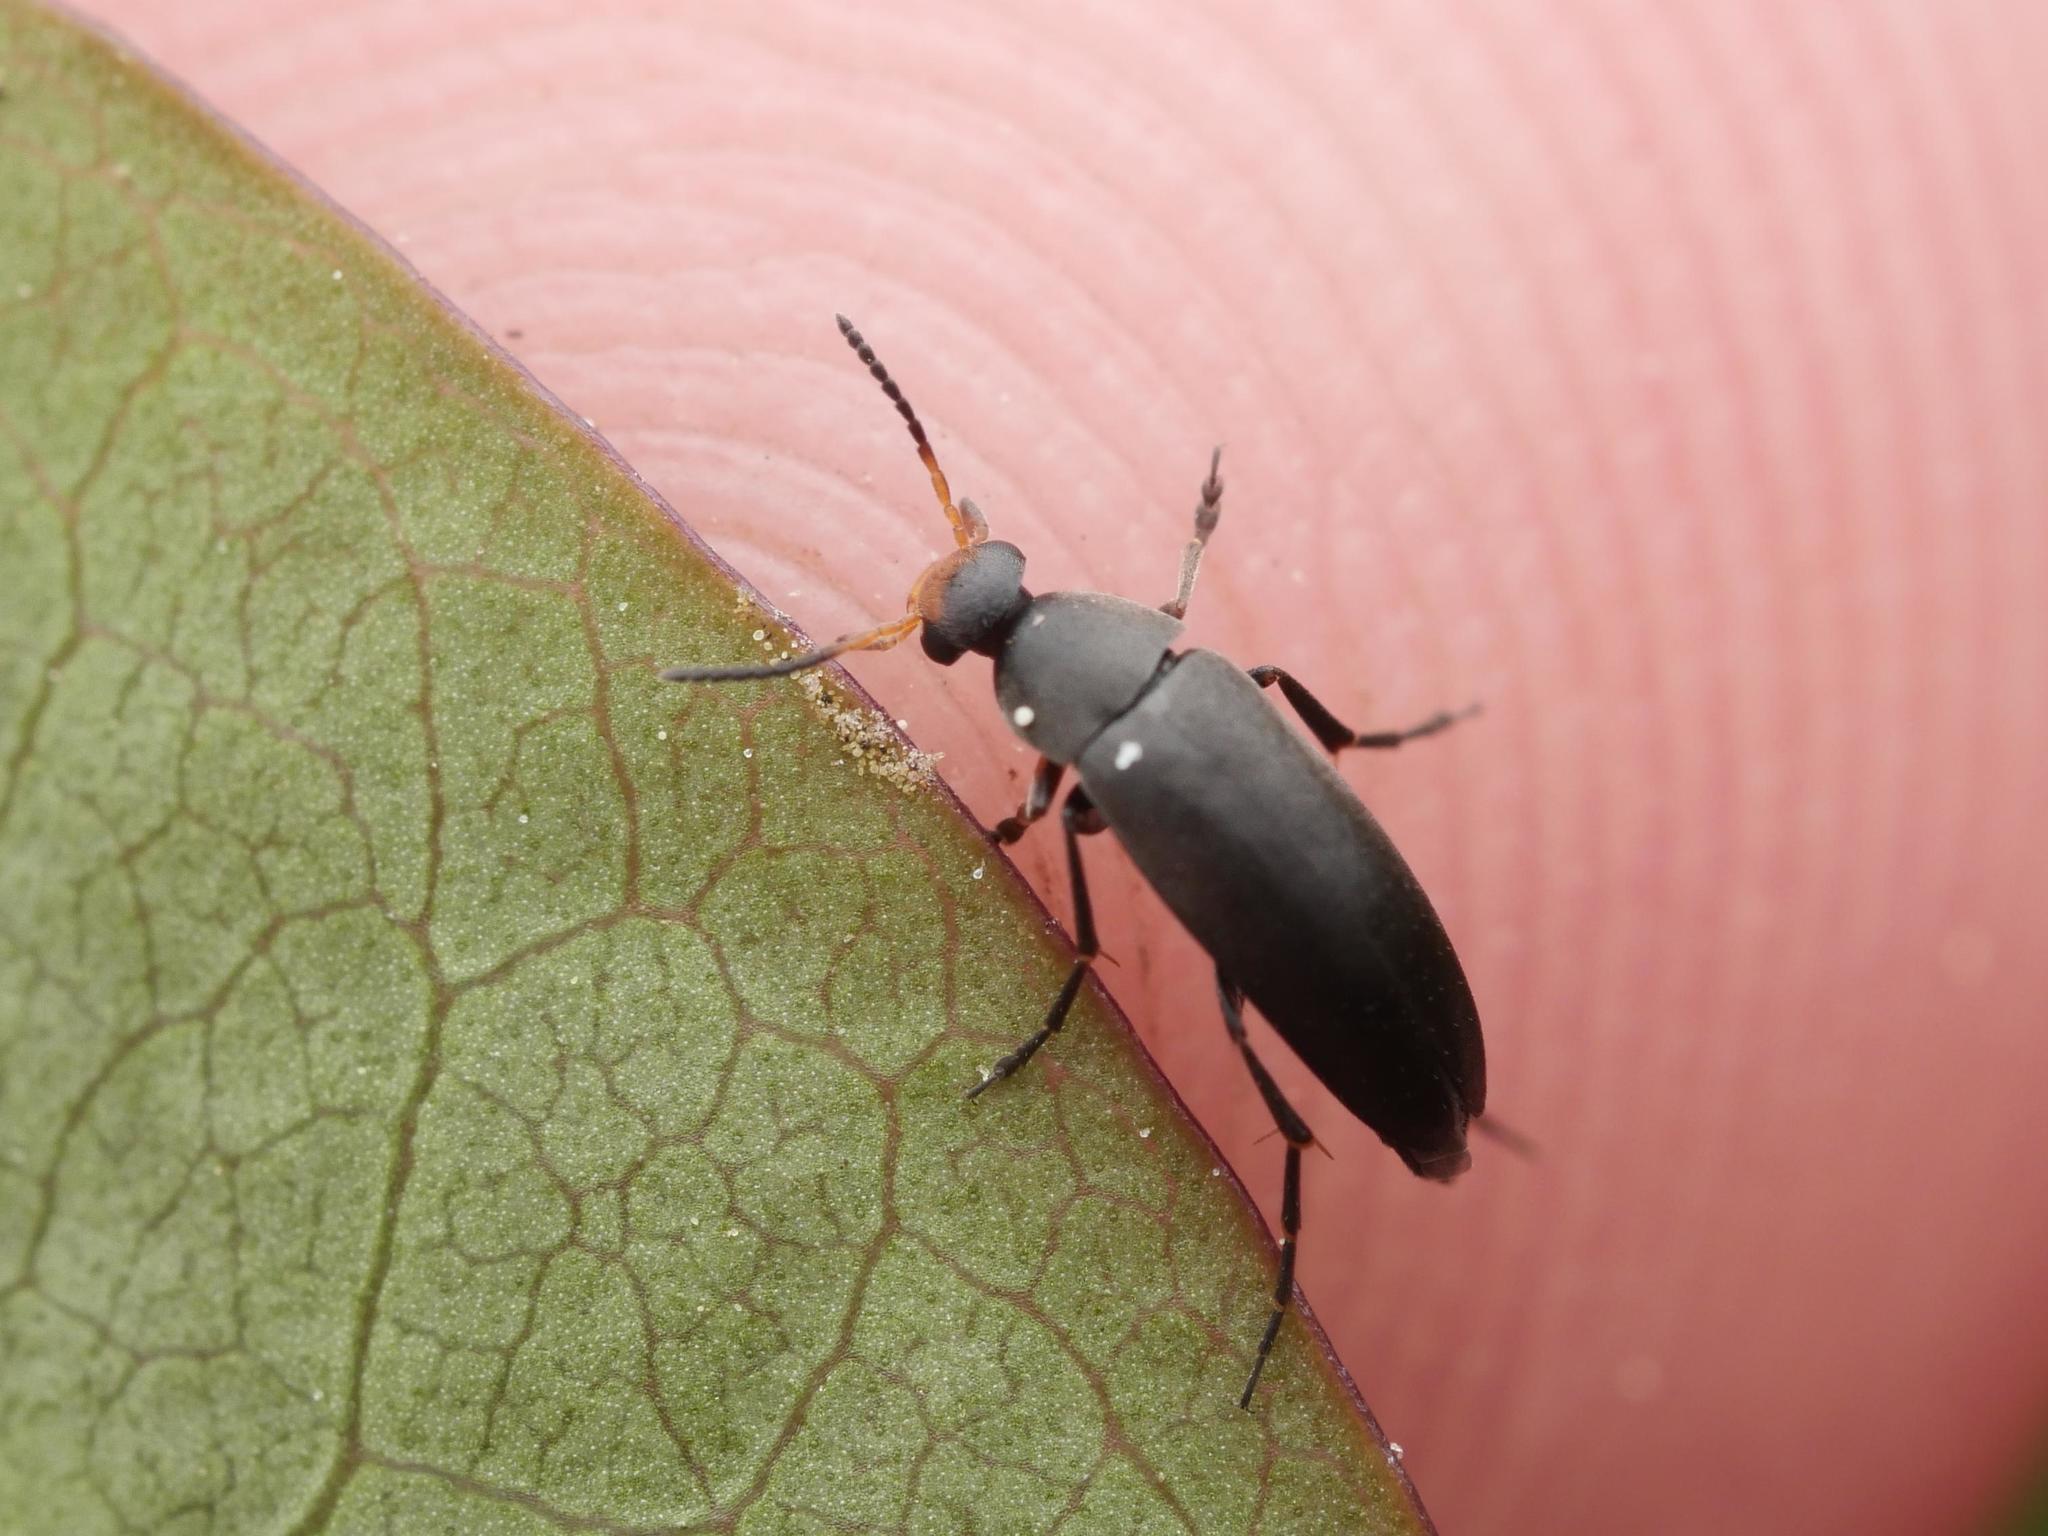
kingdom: Animalia
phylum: Arthropoda
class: Insecta
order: Coleoptera
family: Scraptiidae
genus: Anaspis
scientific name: Anaspis frontalis
